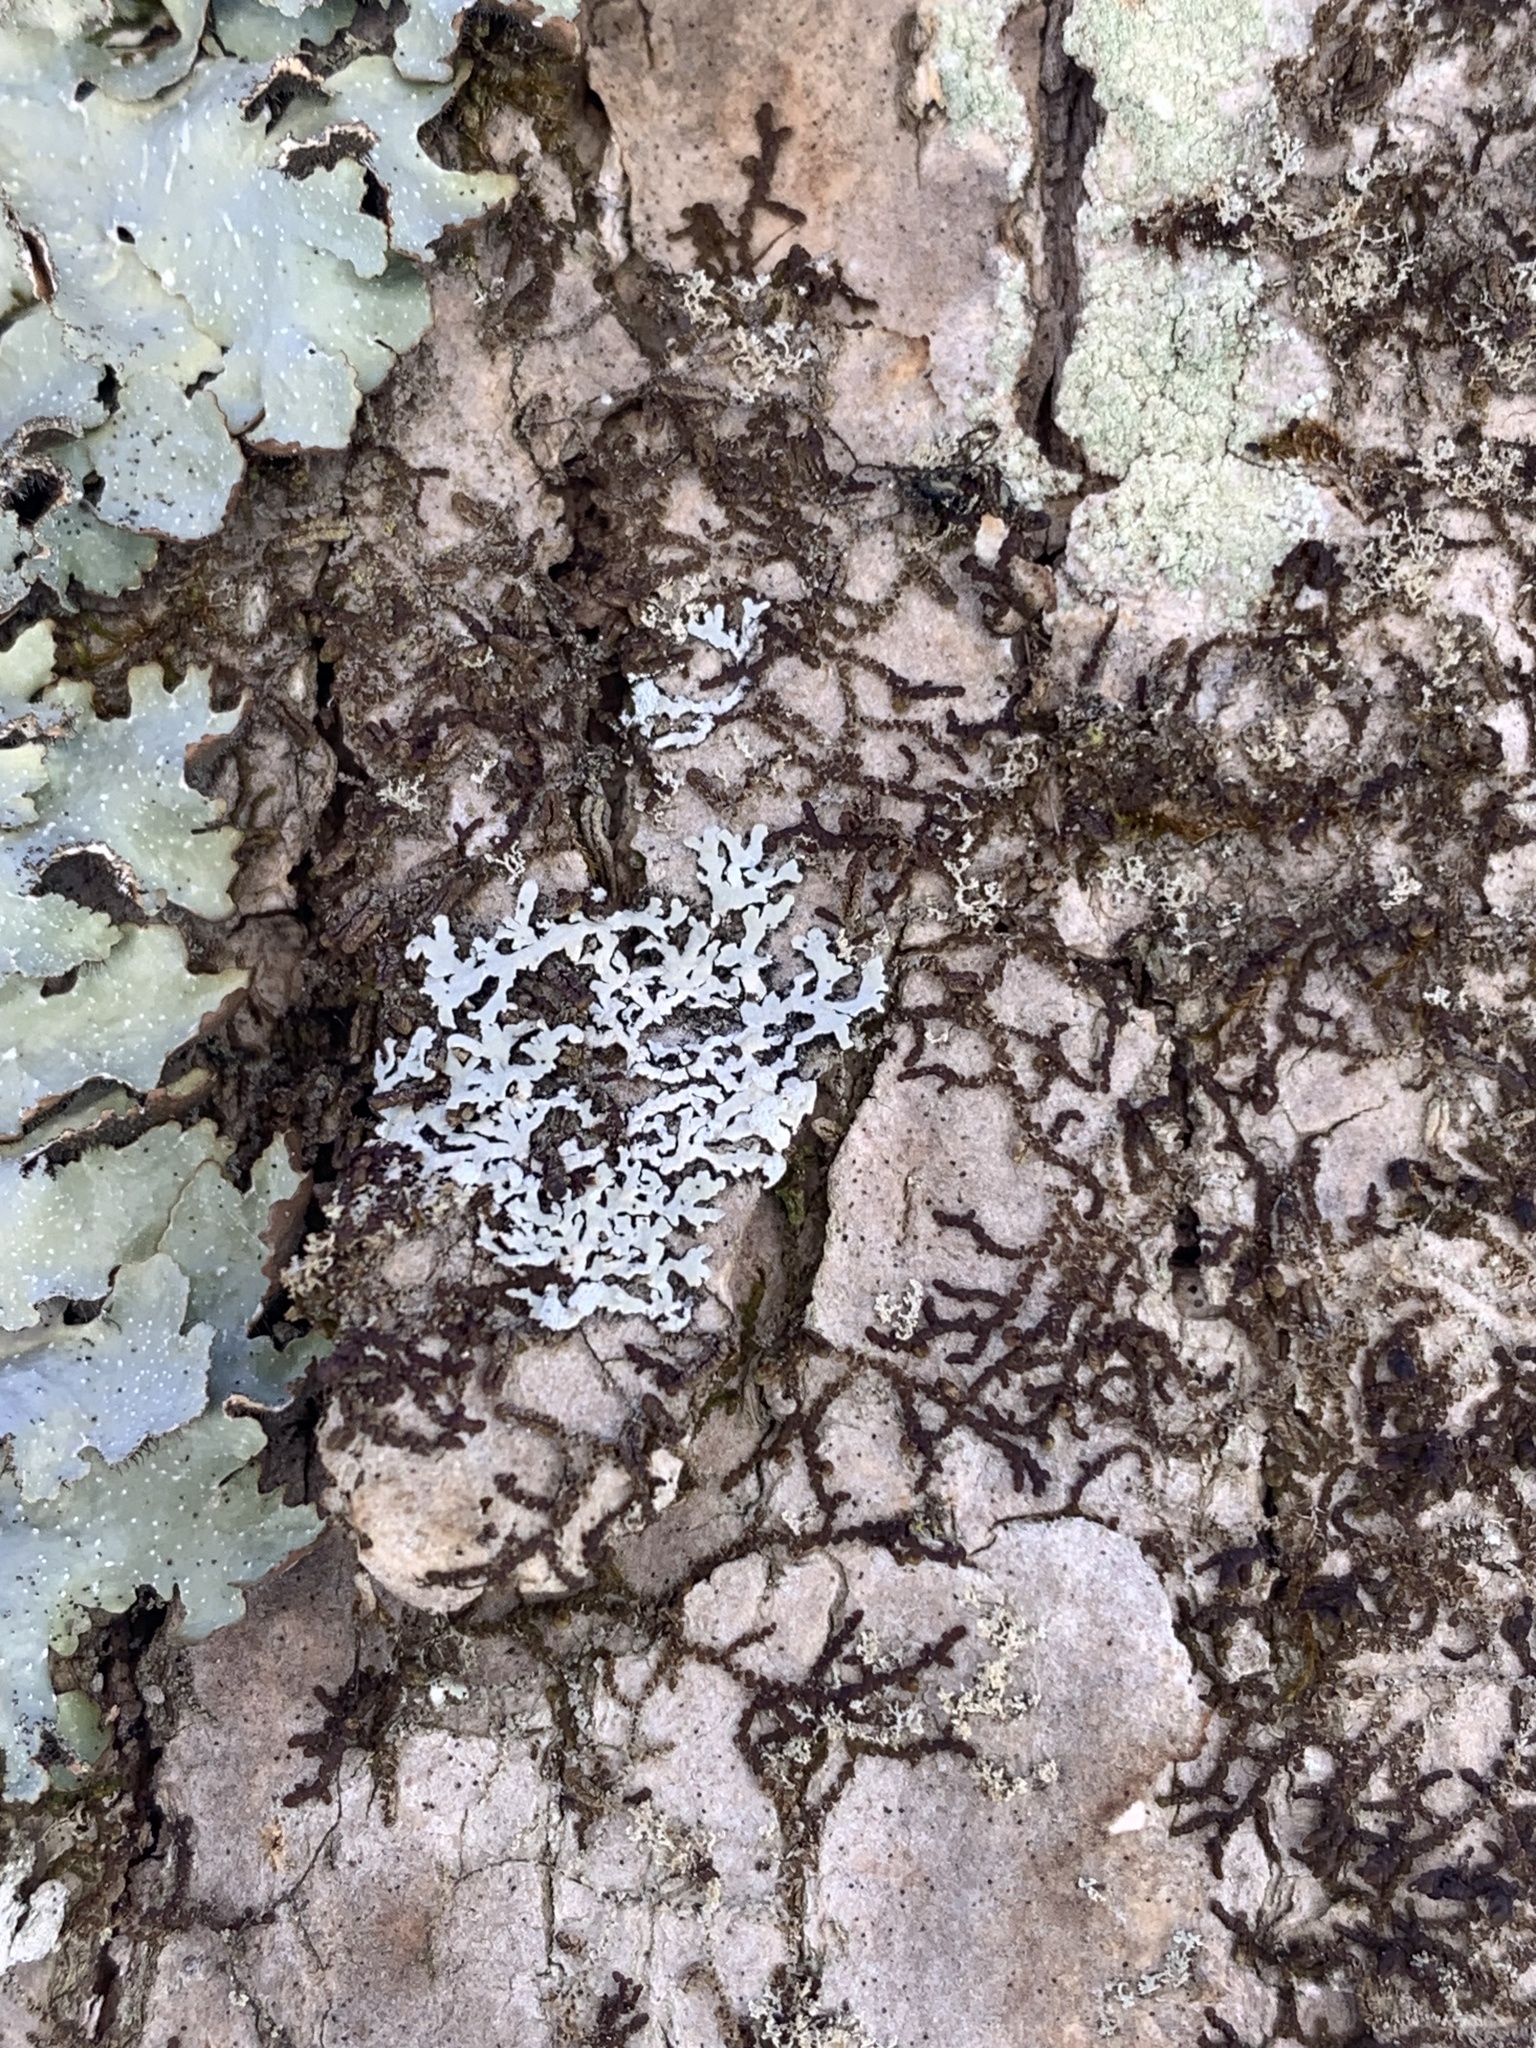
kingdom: Fungi
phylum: Ascomycota
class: Lecanoromycetes
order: Caliciales
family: Physciaceae
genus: Physcia
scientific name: Physcia americana
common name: American rosette lichen
